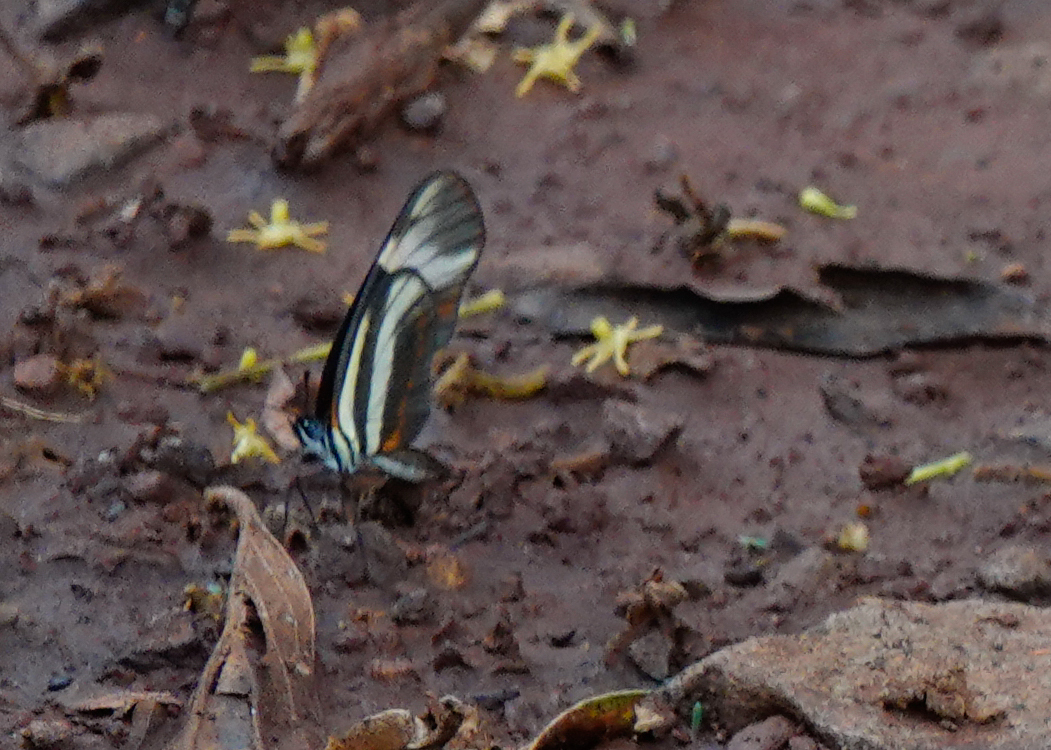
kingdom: Animalia
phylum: Arthropoda
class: Insecta
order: Lepidoptera
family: Nymphalidae
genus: Eresia
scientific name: Eresia lansdorfi
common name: Lansdorf's crescent
